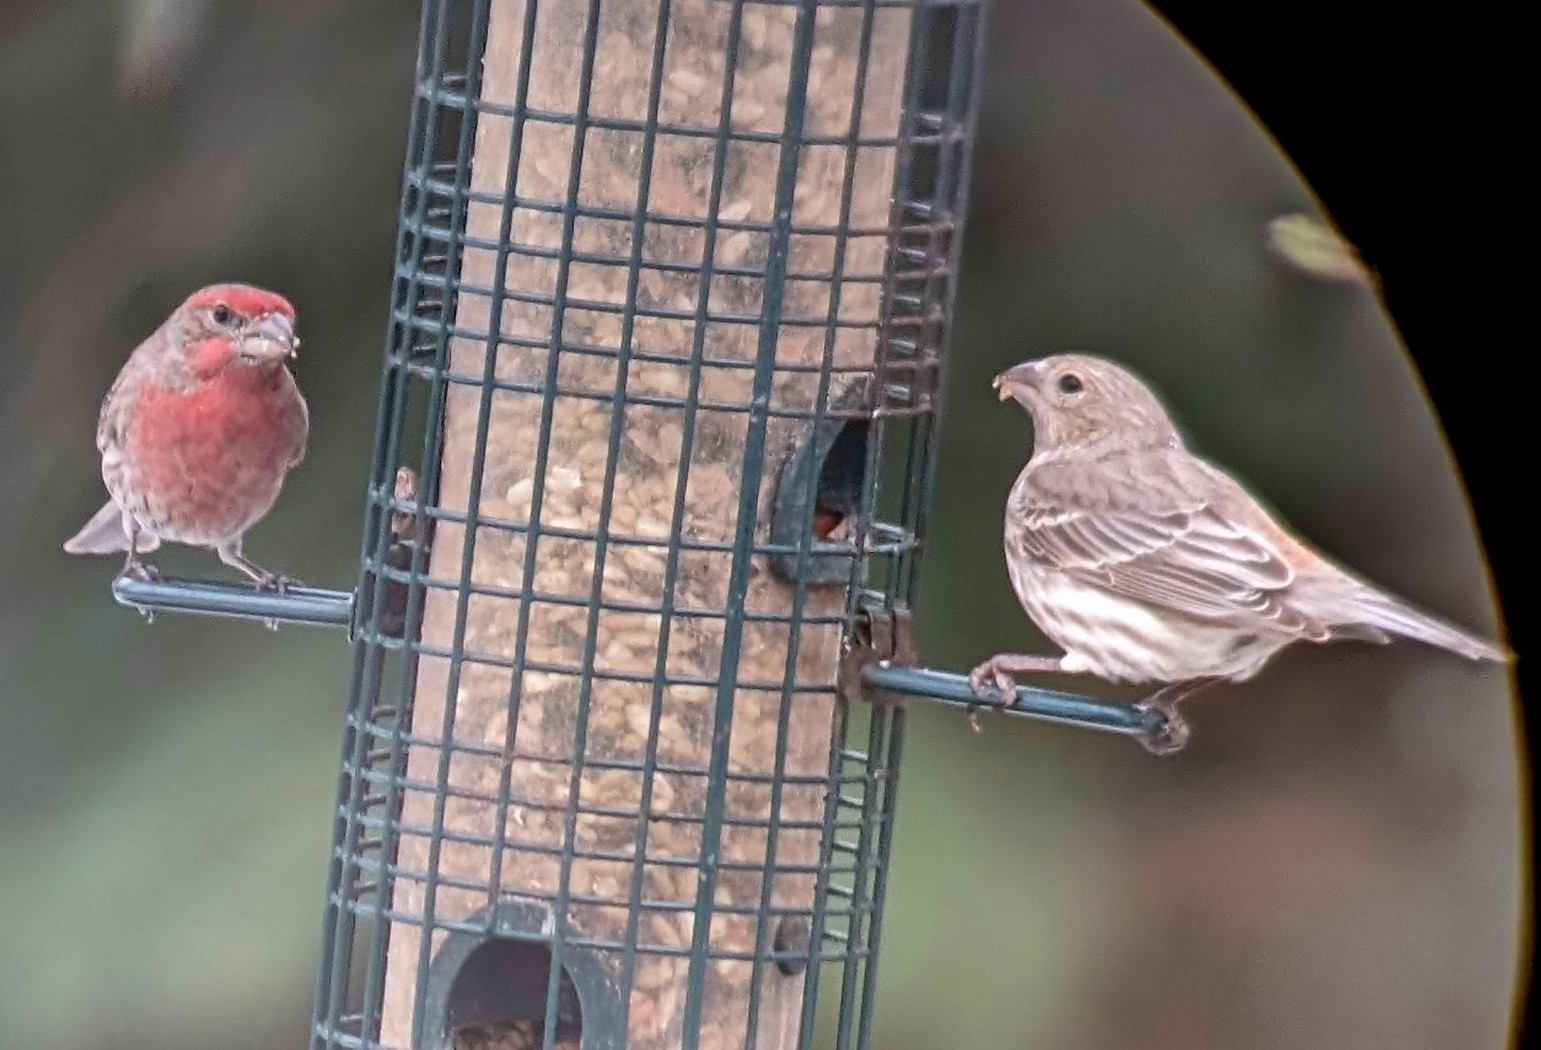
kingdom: Animalia
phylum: Chordata
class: Aves
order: Passeriformes
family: Fringillidae
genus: Haemorhous
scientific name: Haemorhous mexicanus
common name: House finch
